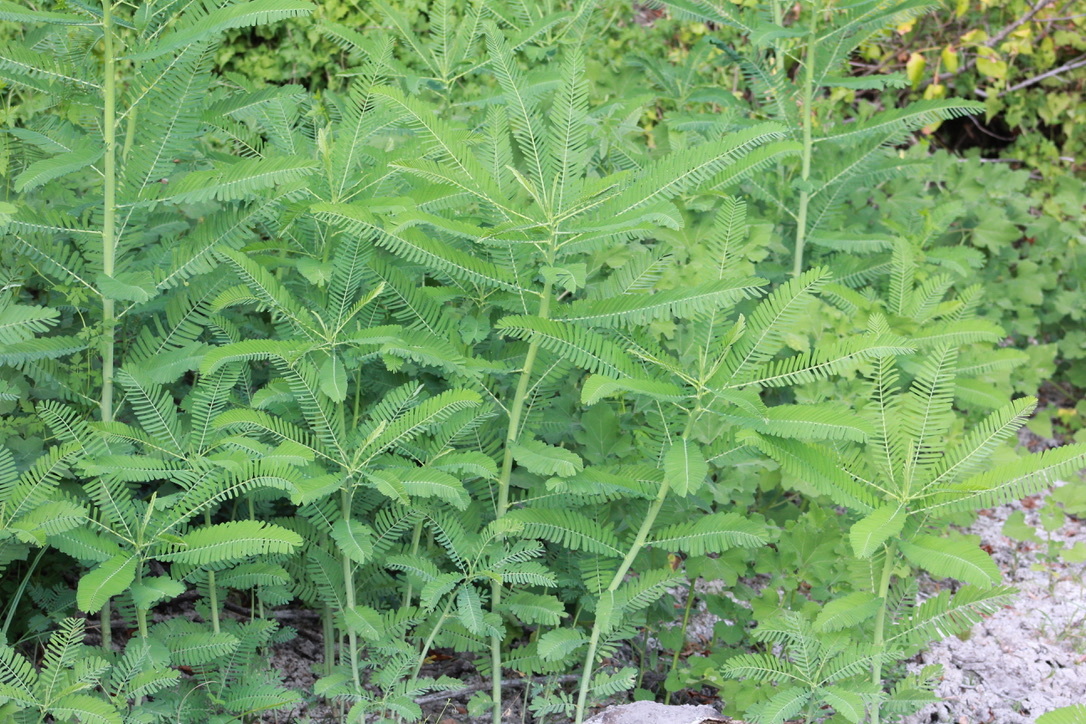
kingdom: Plantae
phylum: Tracheophyta
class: Magnoliopsida
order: Fabales
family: Fabaceae
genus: Sesbania
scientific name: Sesbania herbacea
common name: Bigpod sesbania
